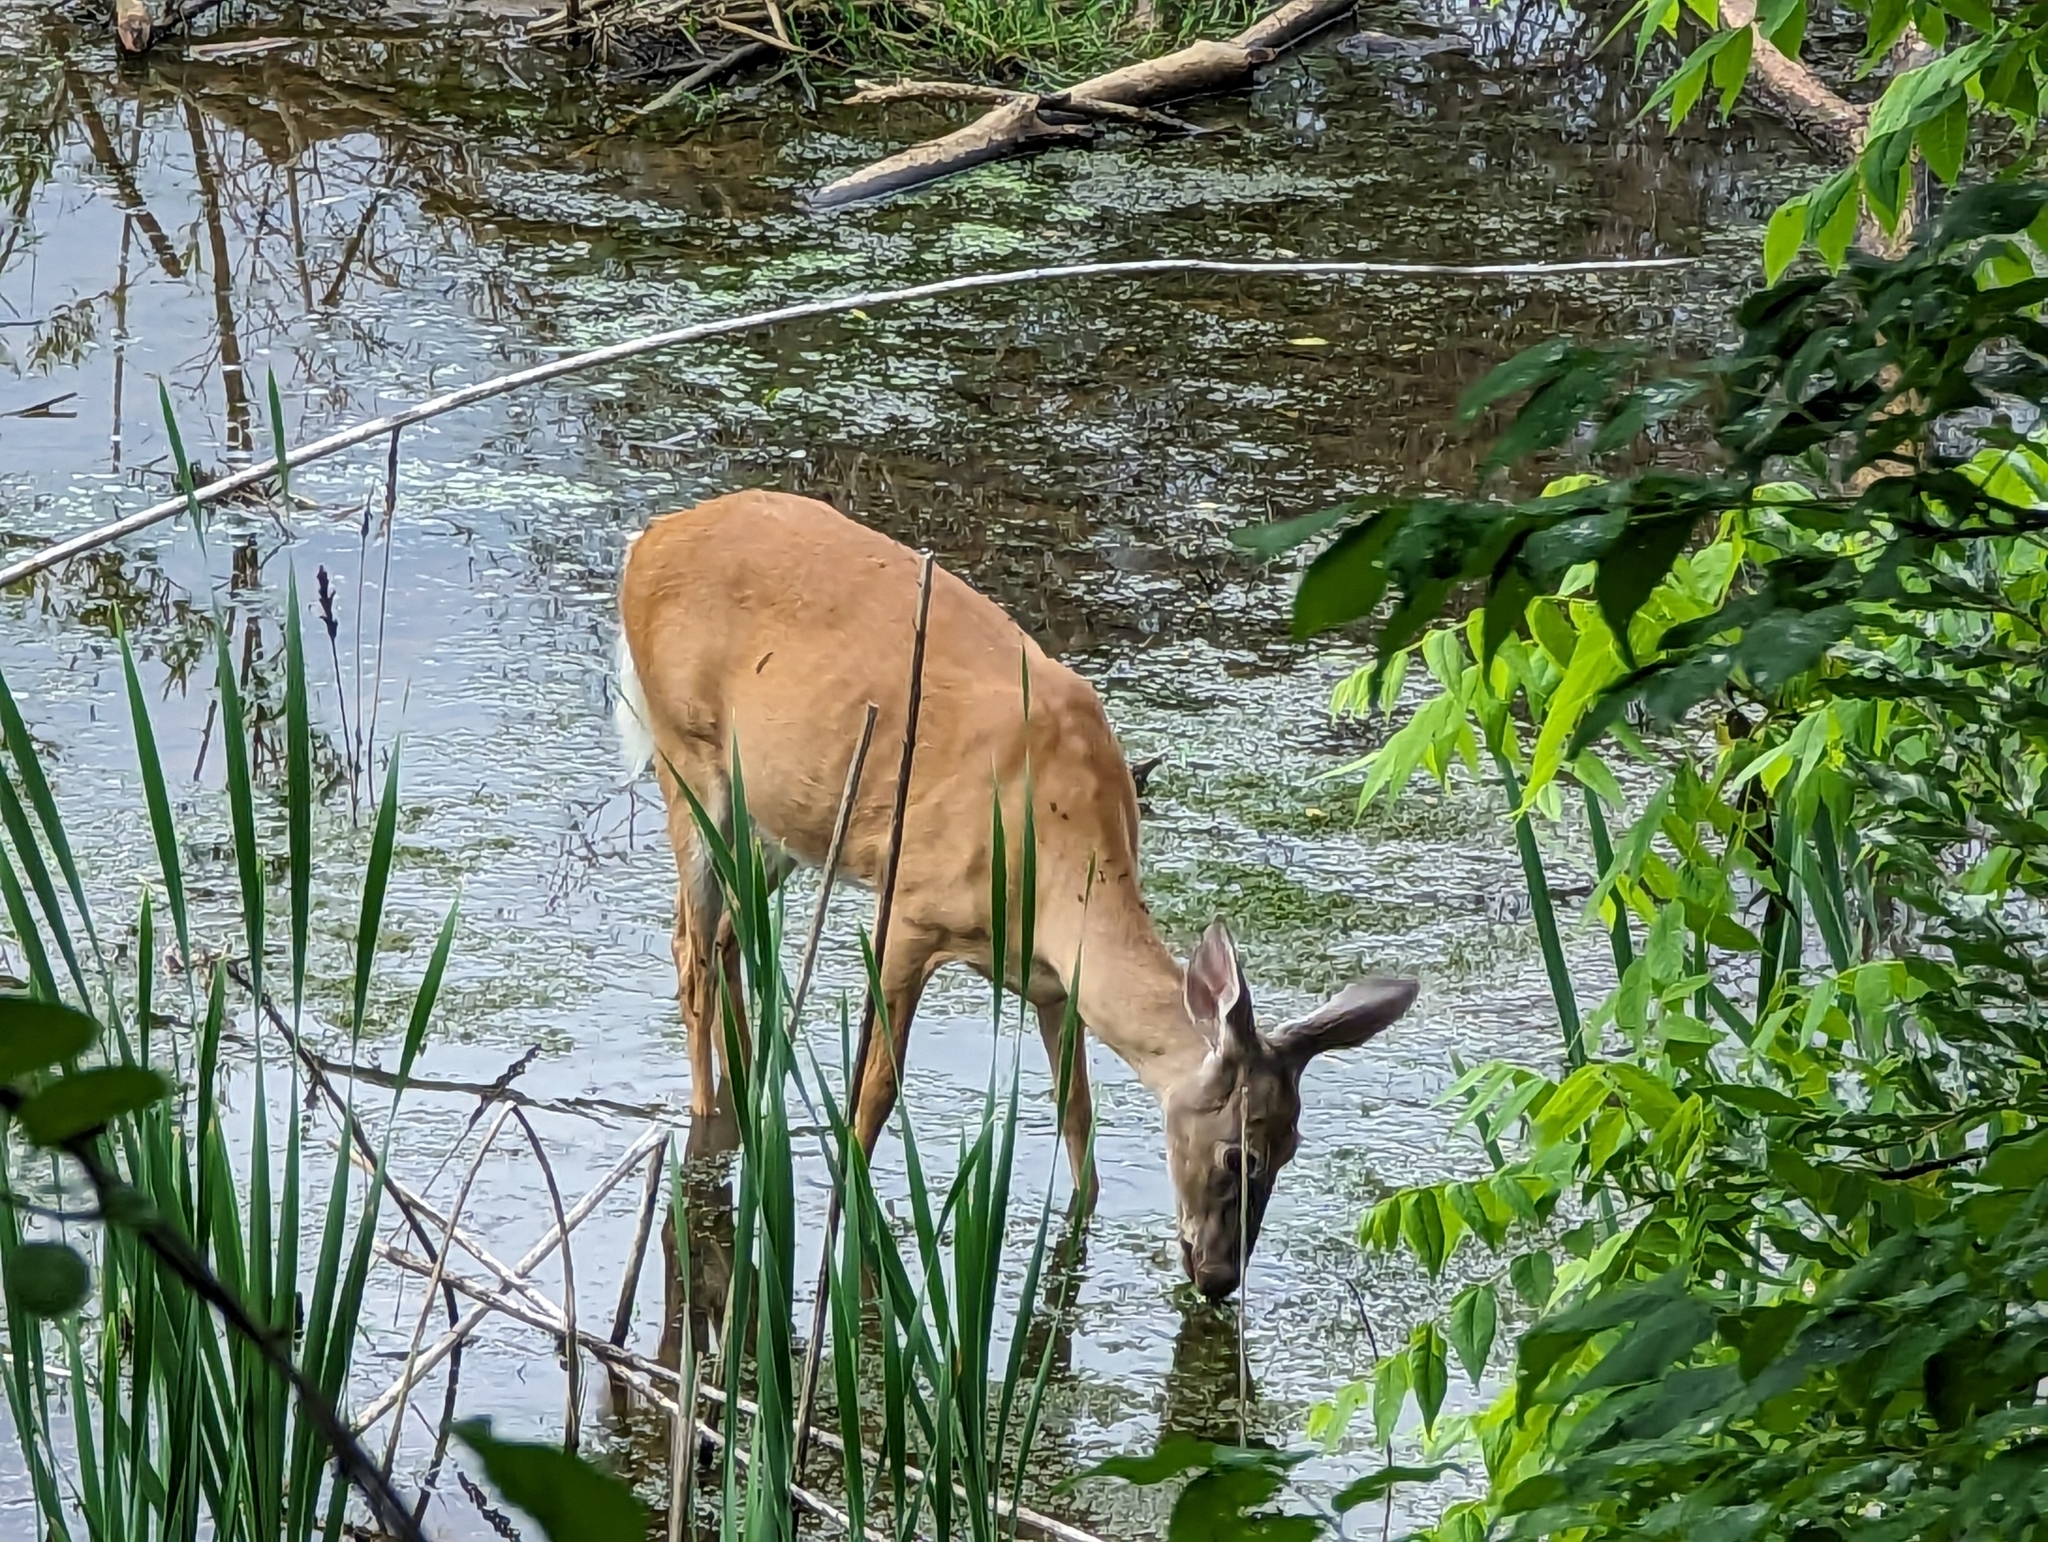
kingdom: Animalia
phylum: Chordata
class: Mammalia
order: Artiodactyla
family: Cervidae
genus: Odocoileus
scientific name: Odocoileus virginianus
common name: White-tailed deer
